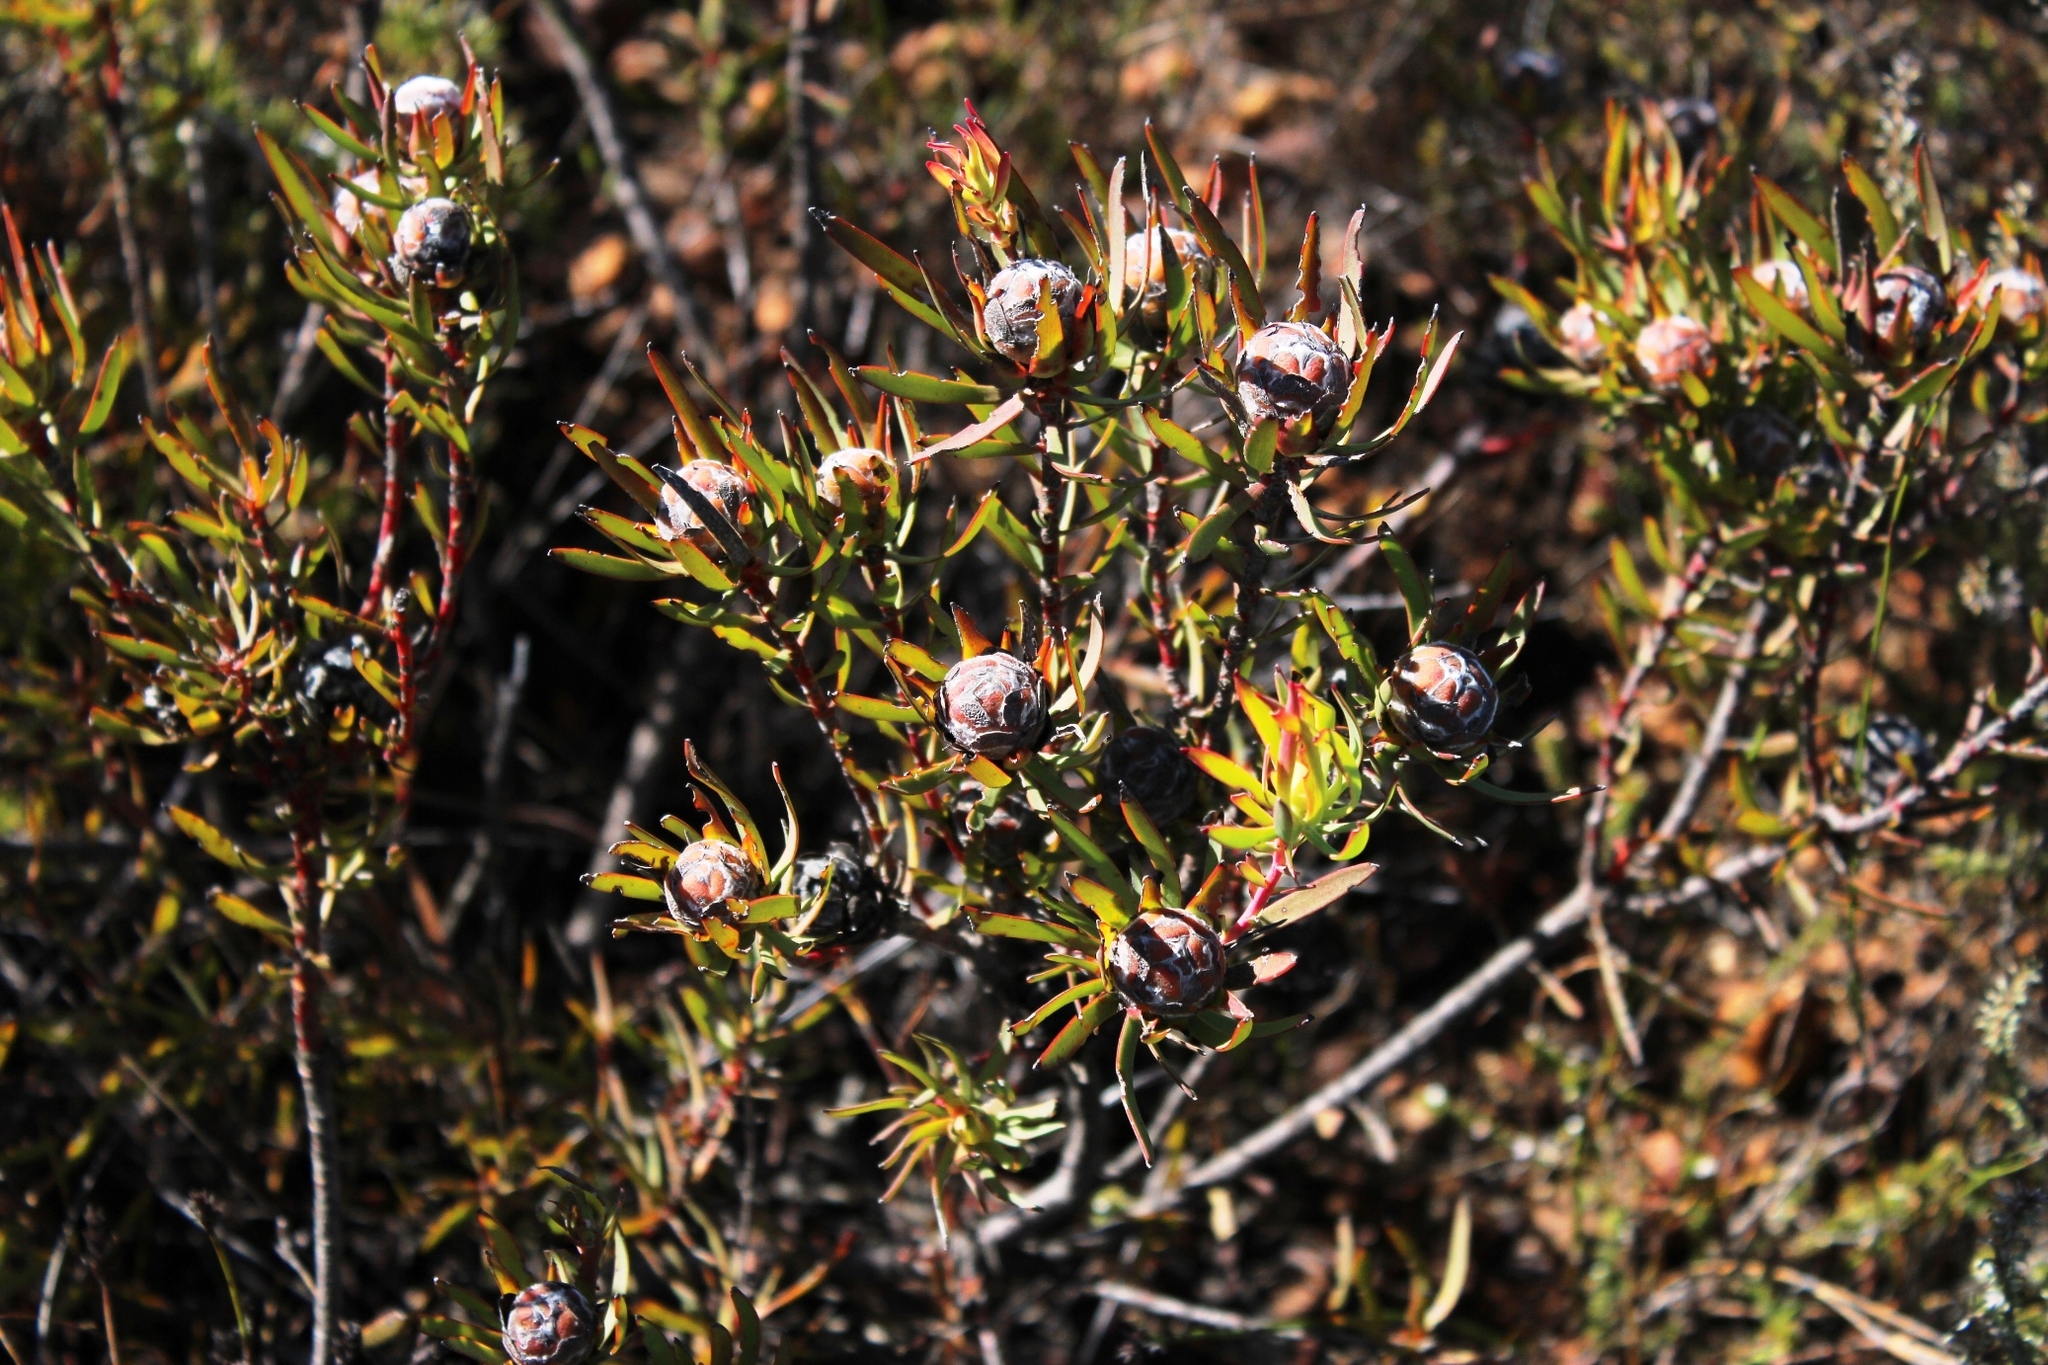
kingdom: Plantae
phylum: Tracheophyta
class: Magnoliopsida
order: Proteales
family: Proteaceae
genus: Leucadendron
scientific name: Leucadendron salignum
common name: Common sunshine conebush
